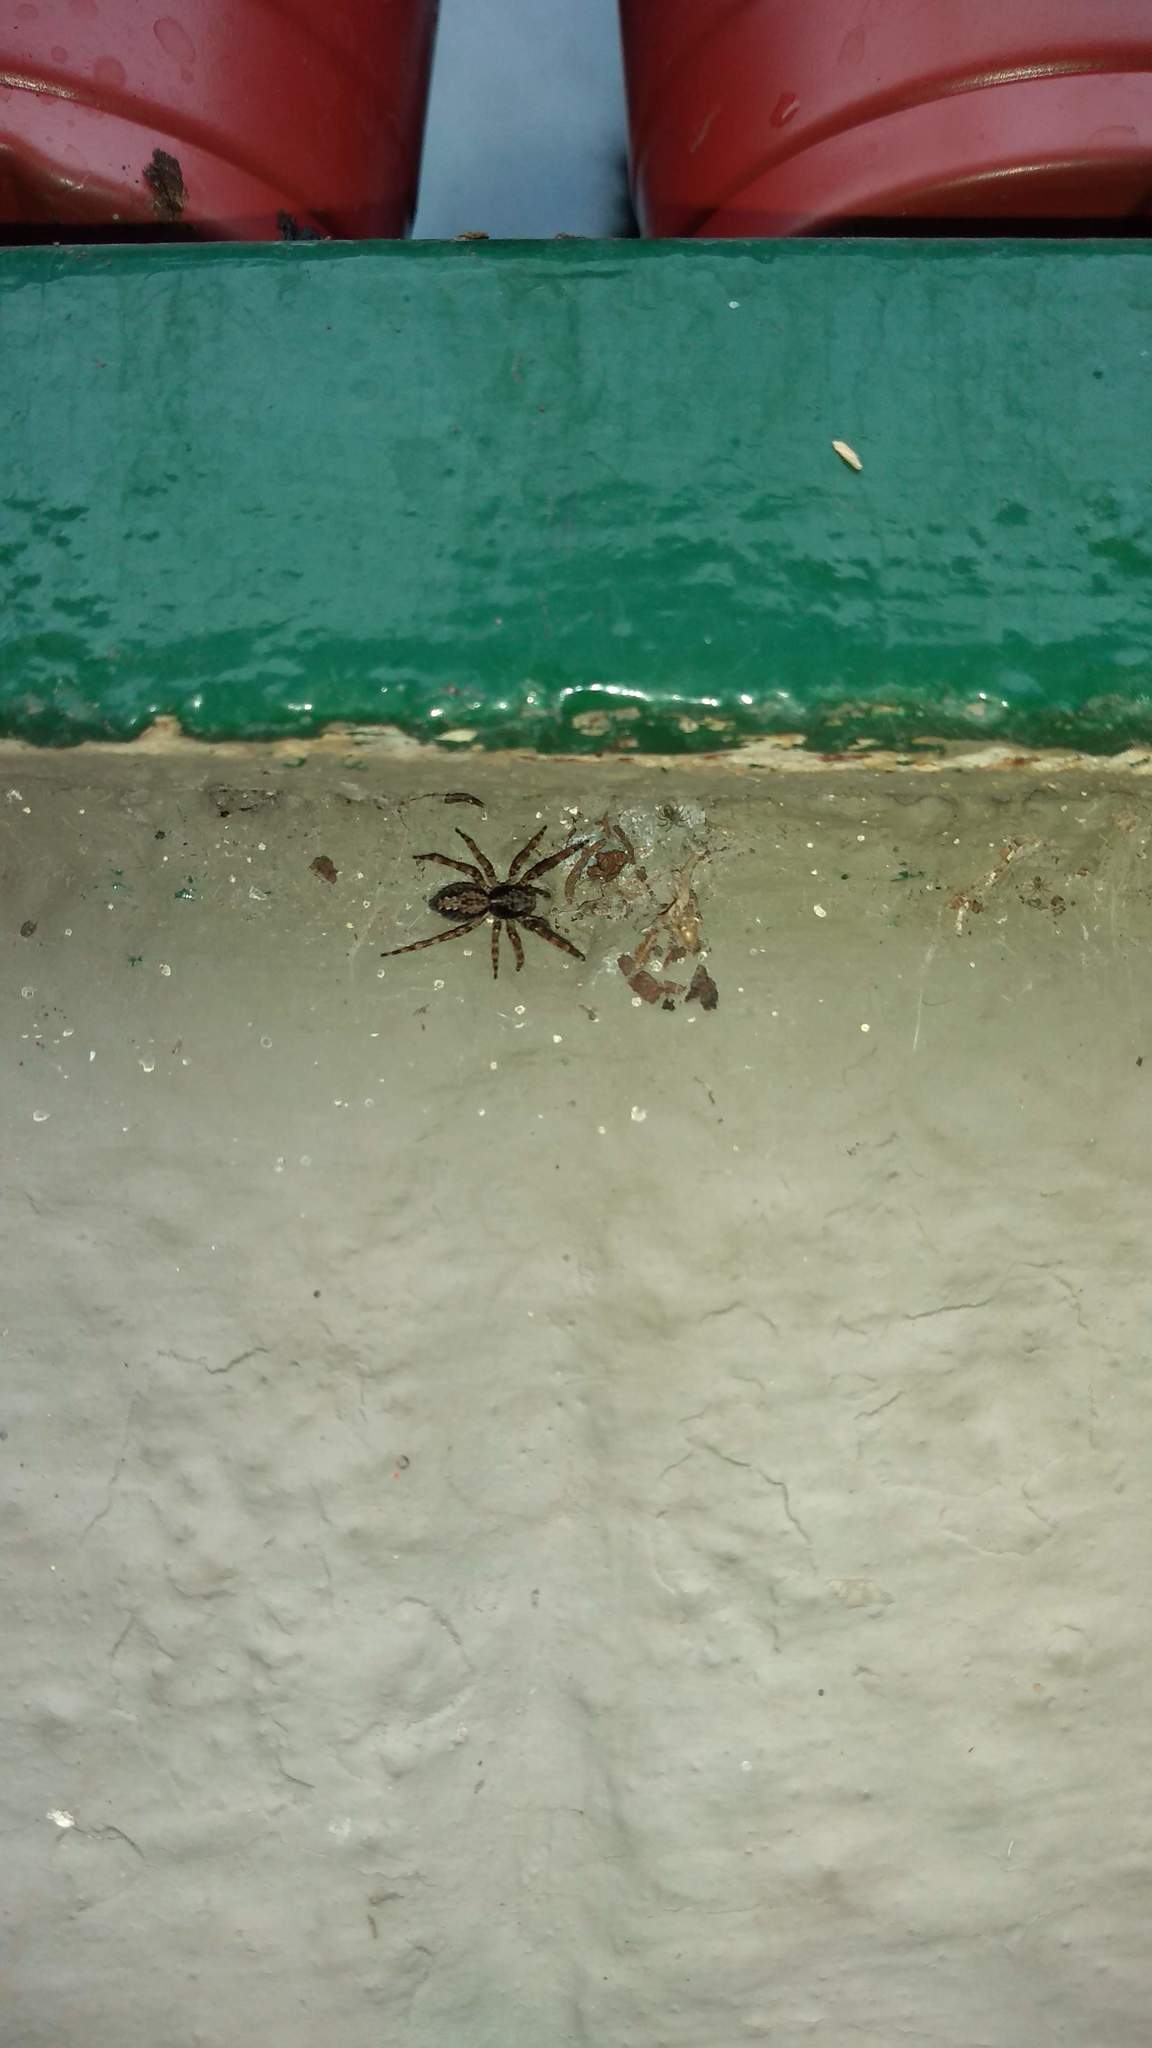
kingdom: Animalia
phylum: Arthropoda
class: Arachnida
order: Araneae
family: Salticidae
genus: Titanattus
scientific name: Titanattus andinus
